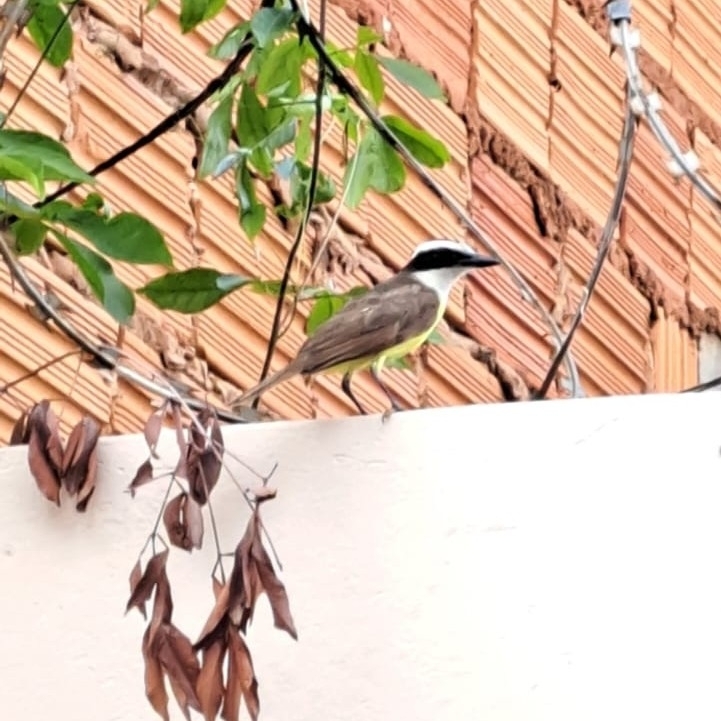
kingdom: Animalia
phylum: Chordata
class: Aves
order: Passeriformes
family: Tyrannidae
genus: Pitangus
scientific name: Pitangus sulphuratus
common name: Great kiskadee
